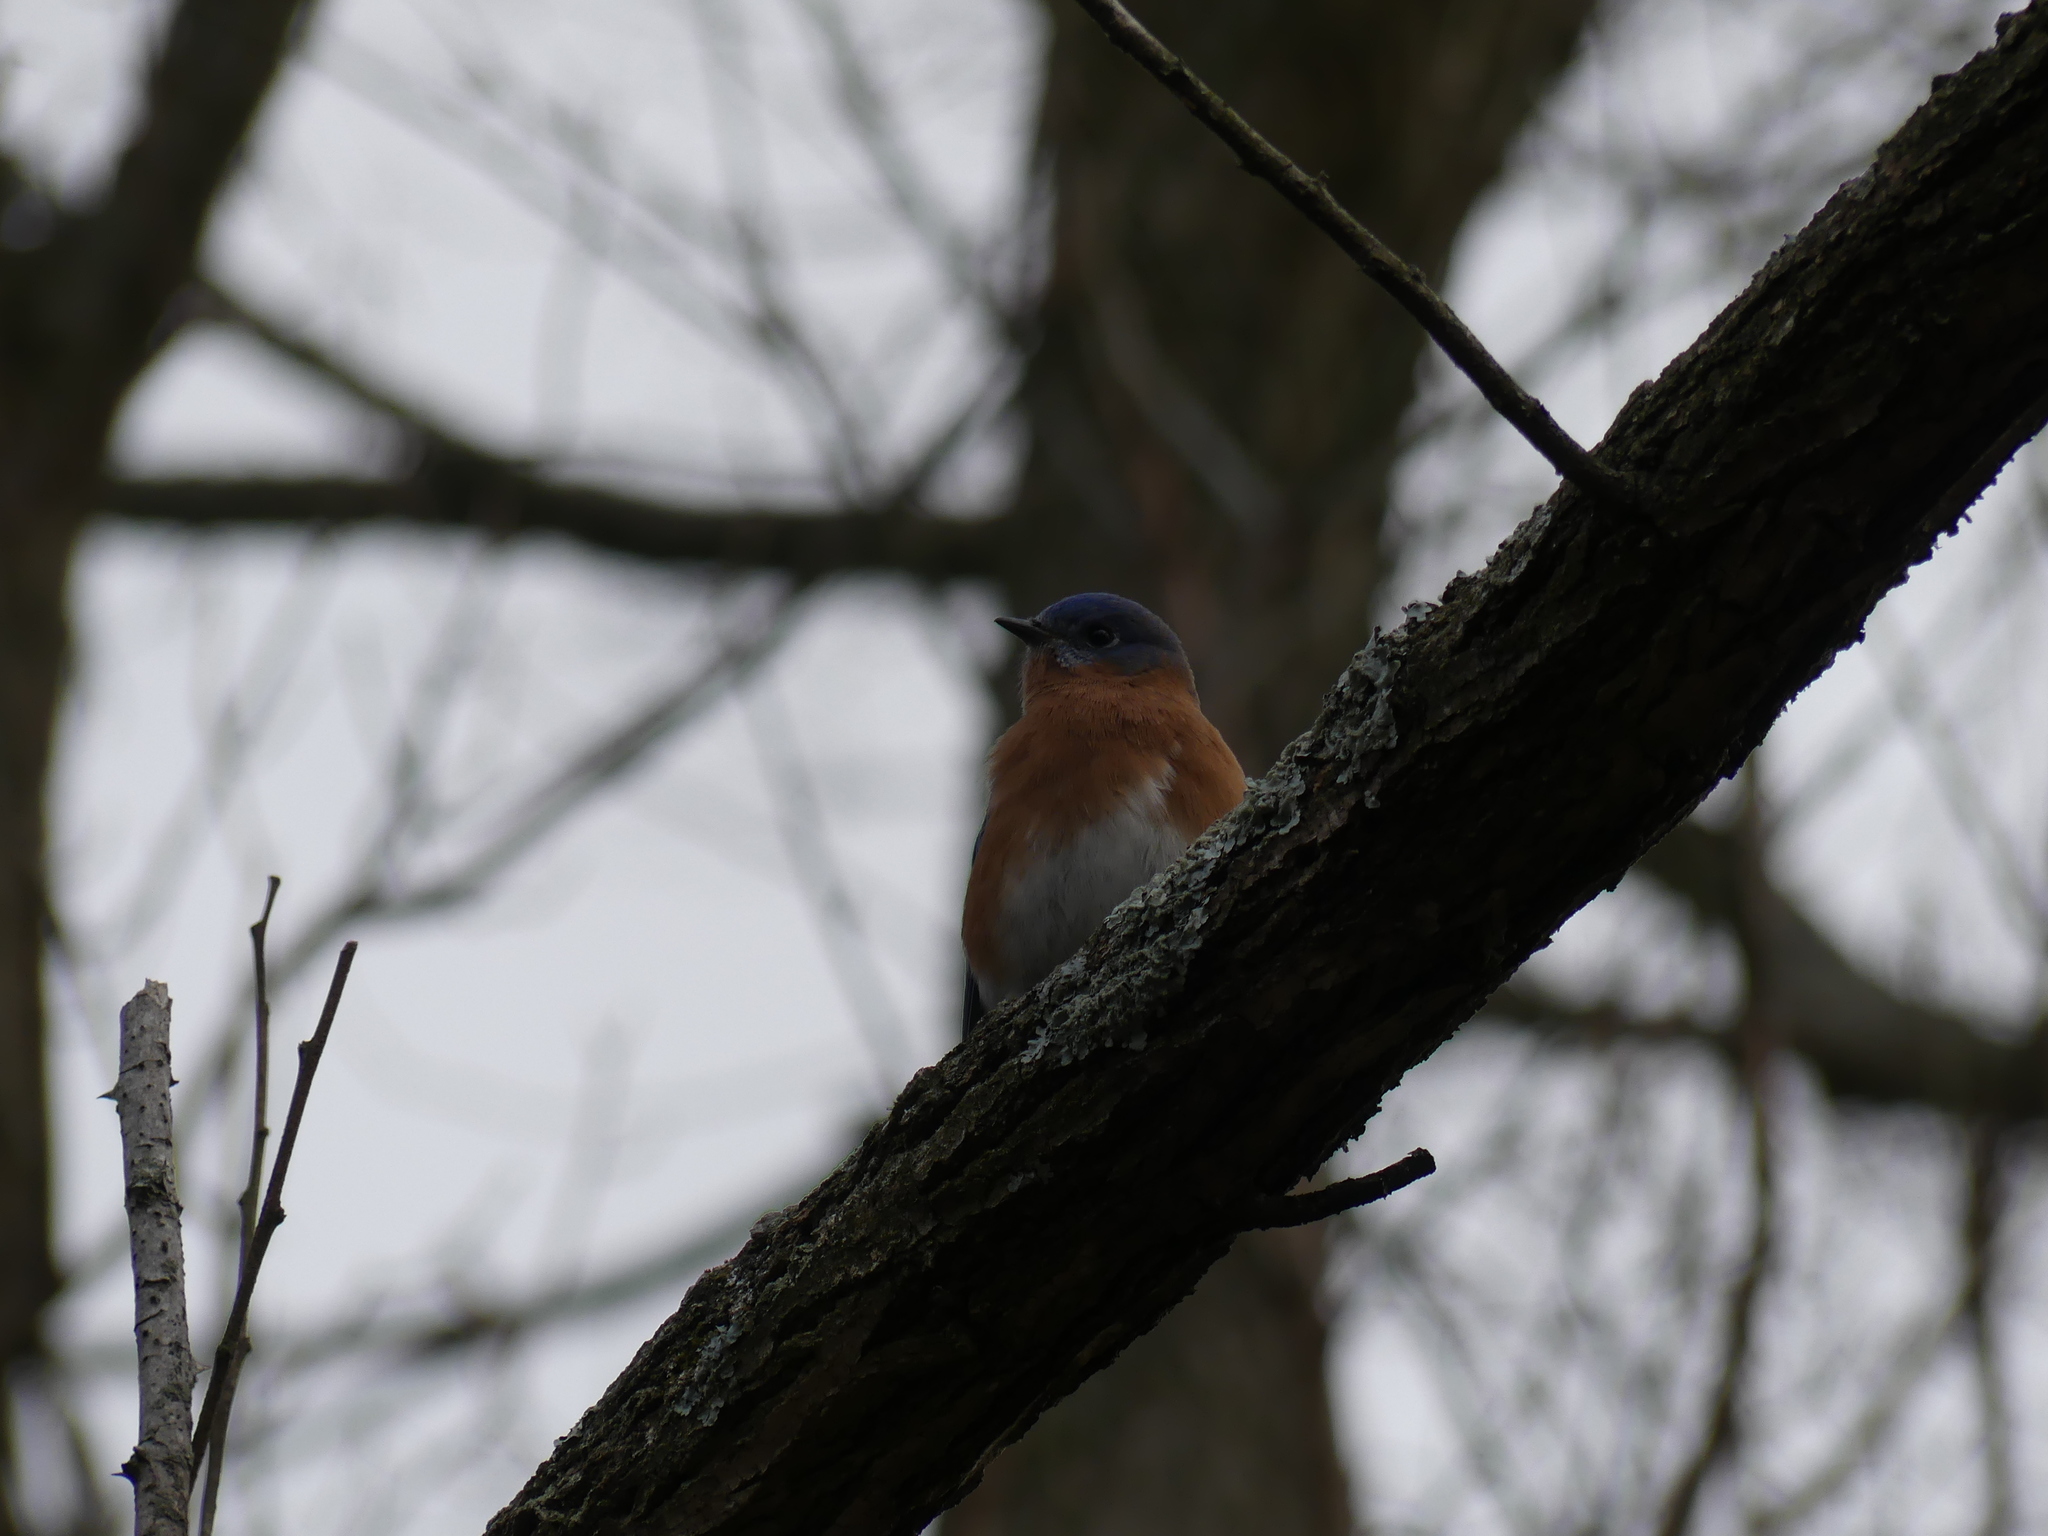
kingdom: Animalia
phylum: Chordata
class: Aves
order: Passeriformes
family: Turdidae
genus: Sialia
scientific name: Sialia sialis
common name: Eastern bluebird
